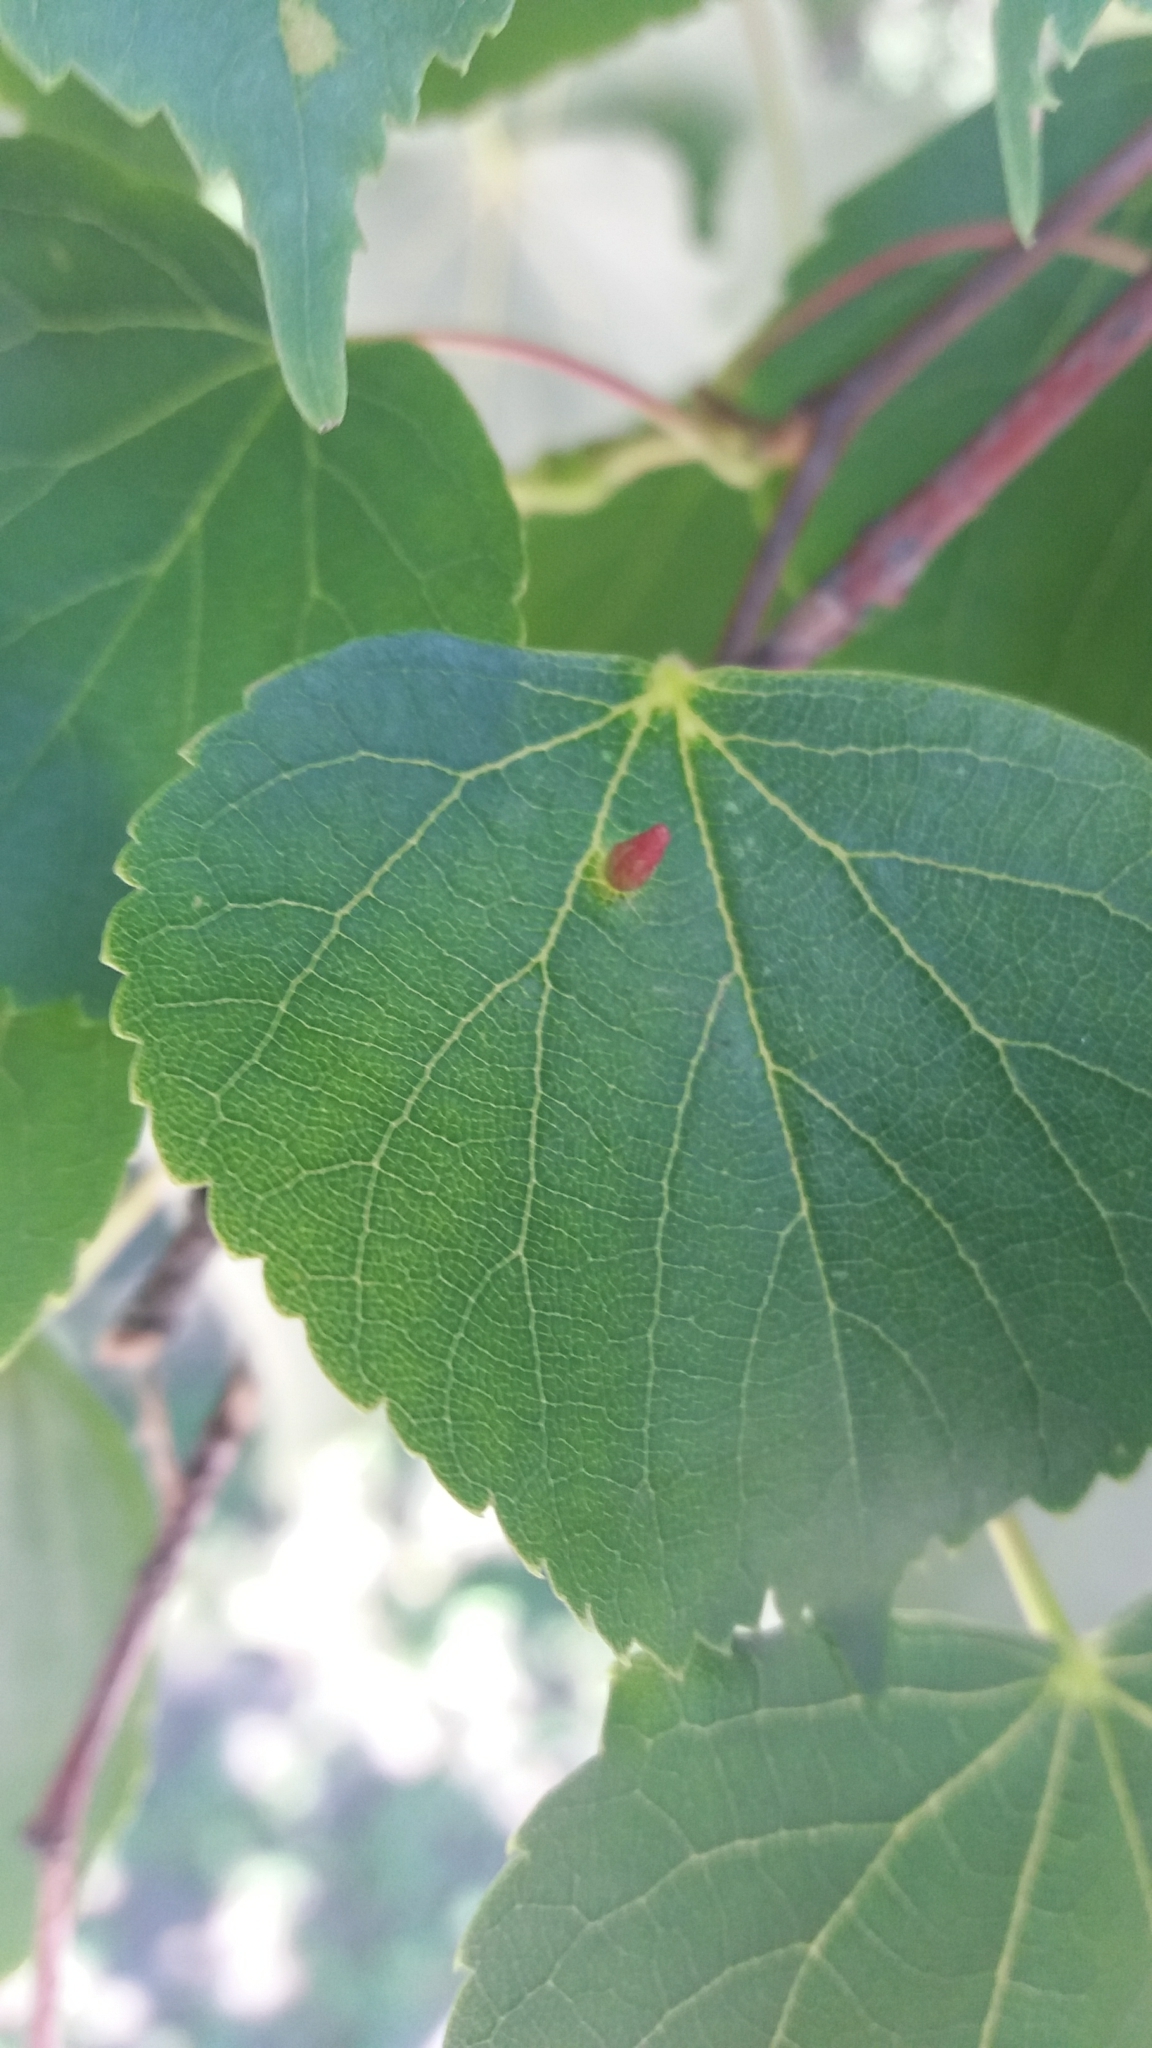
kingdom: Animalia
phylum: Arthropoda
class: Arachnida
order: Trombidiformes
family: Eriophyidae
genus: Eriophyes
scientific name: Eriophyes tiliae
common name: Red nail gall mite
